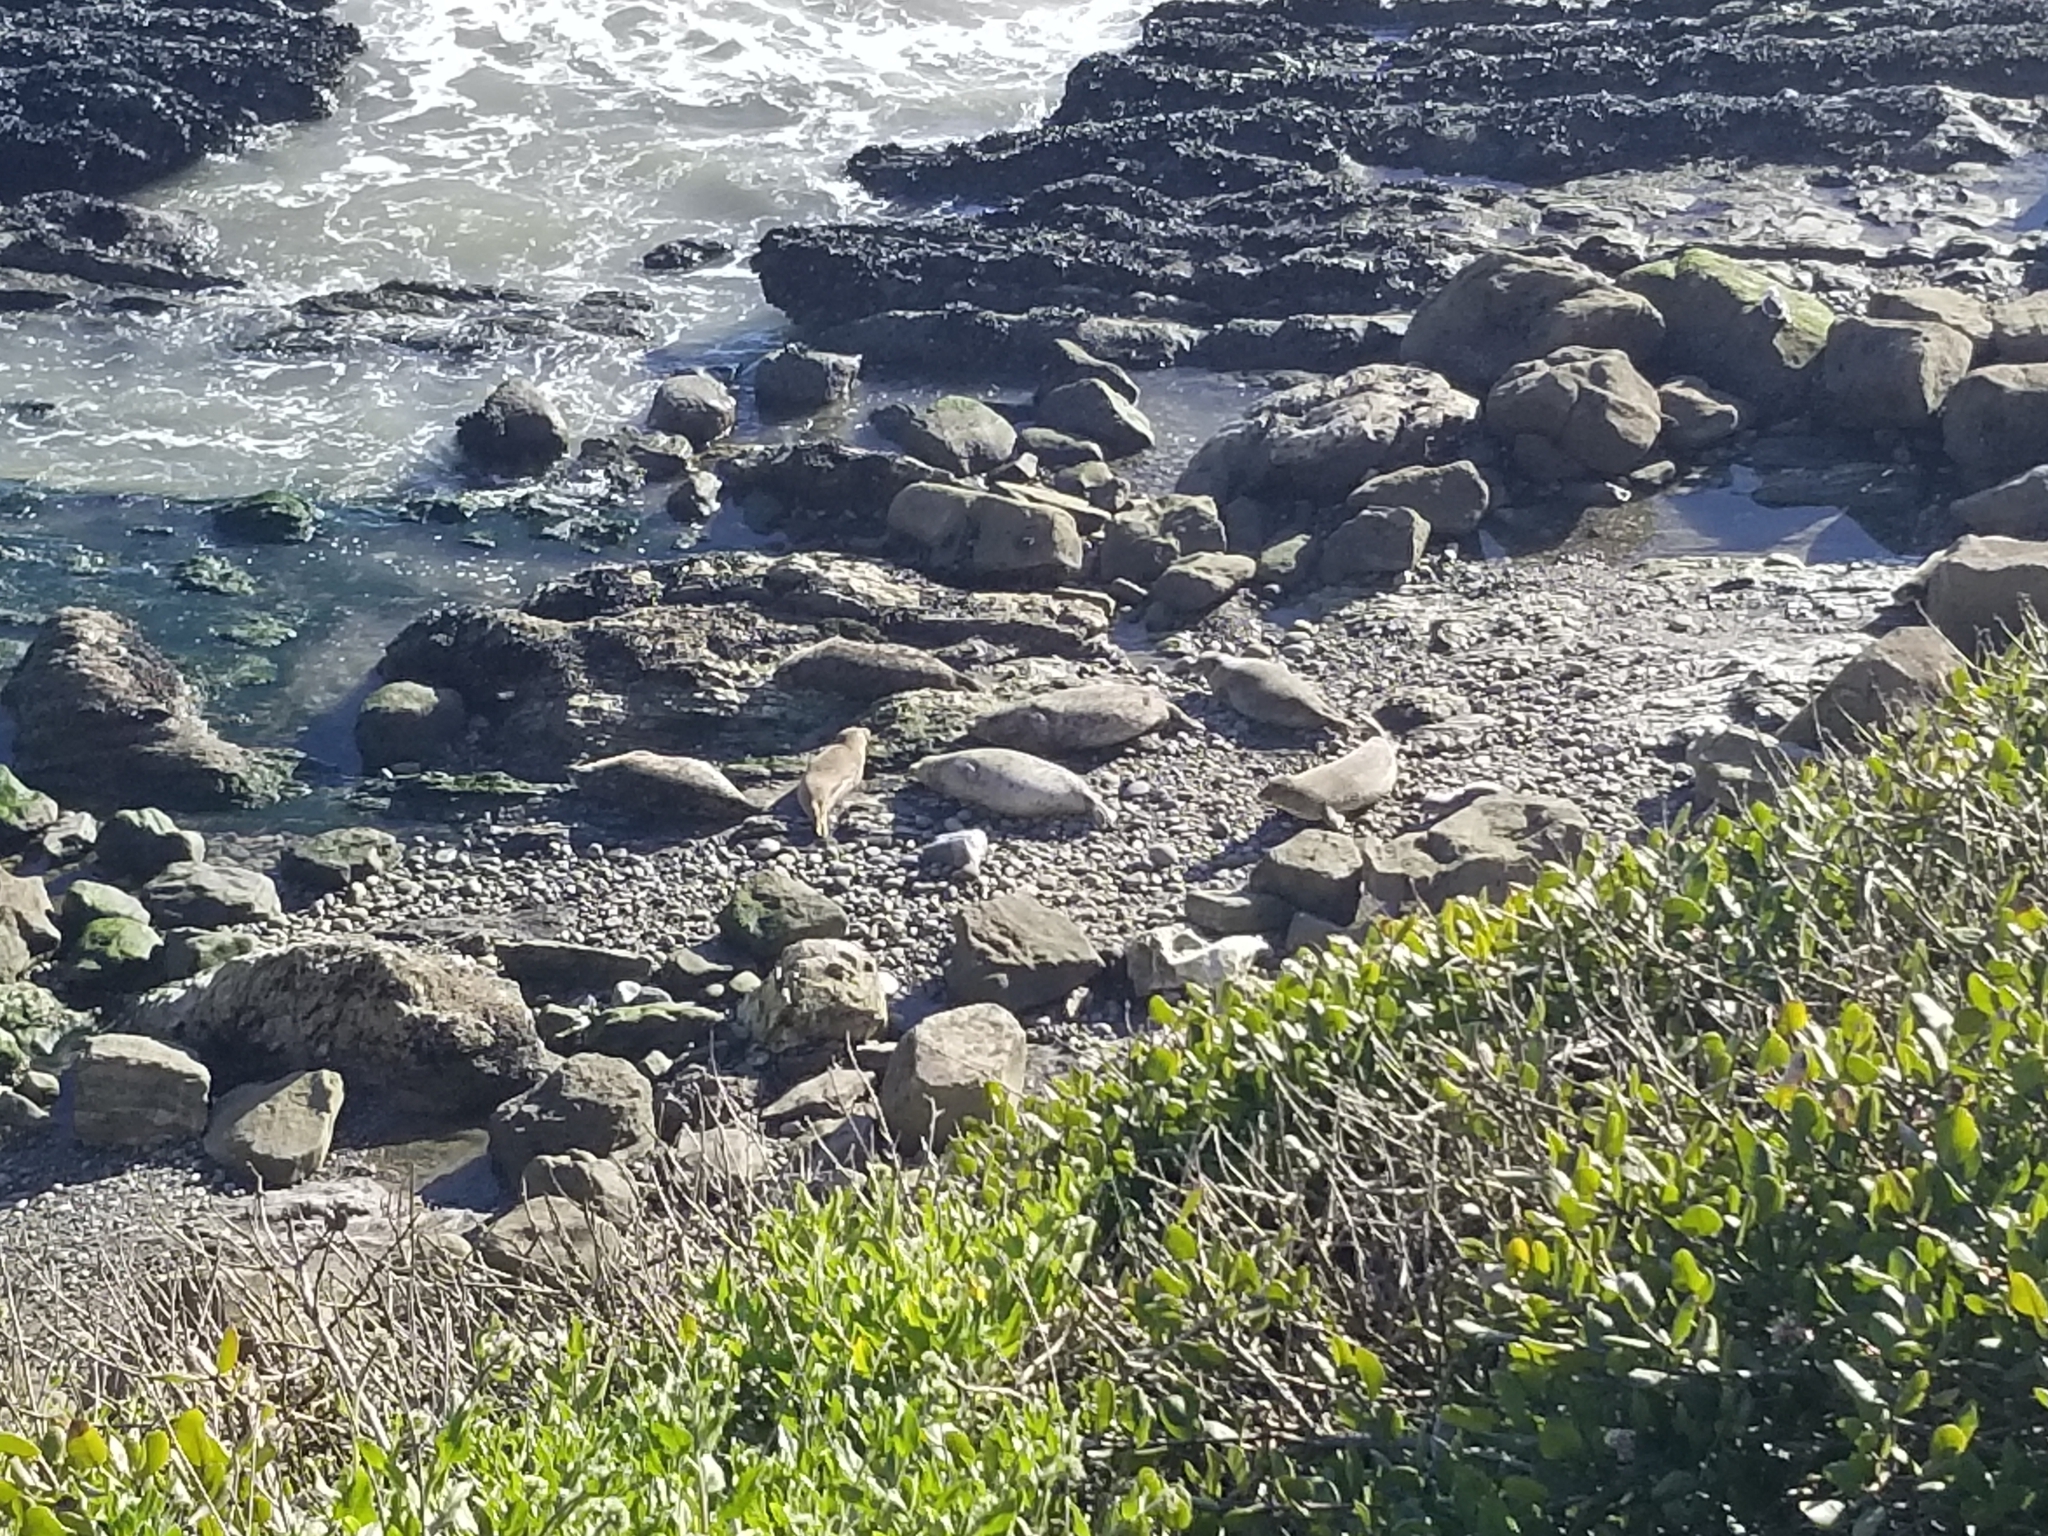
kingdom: Animalia
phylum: Chordata
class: Mammalia
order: Carnivora
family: Phocidae
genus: Phoca
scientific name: Phoca vitulina
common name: Harbor seal
